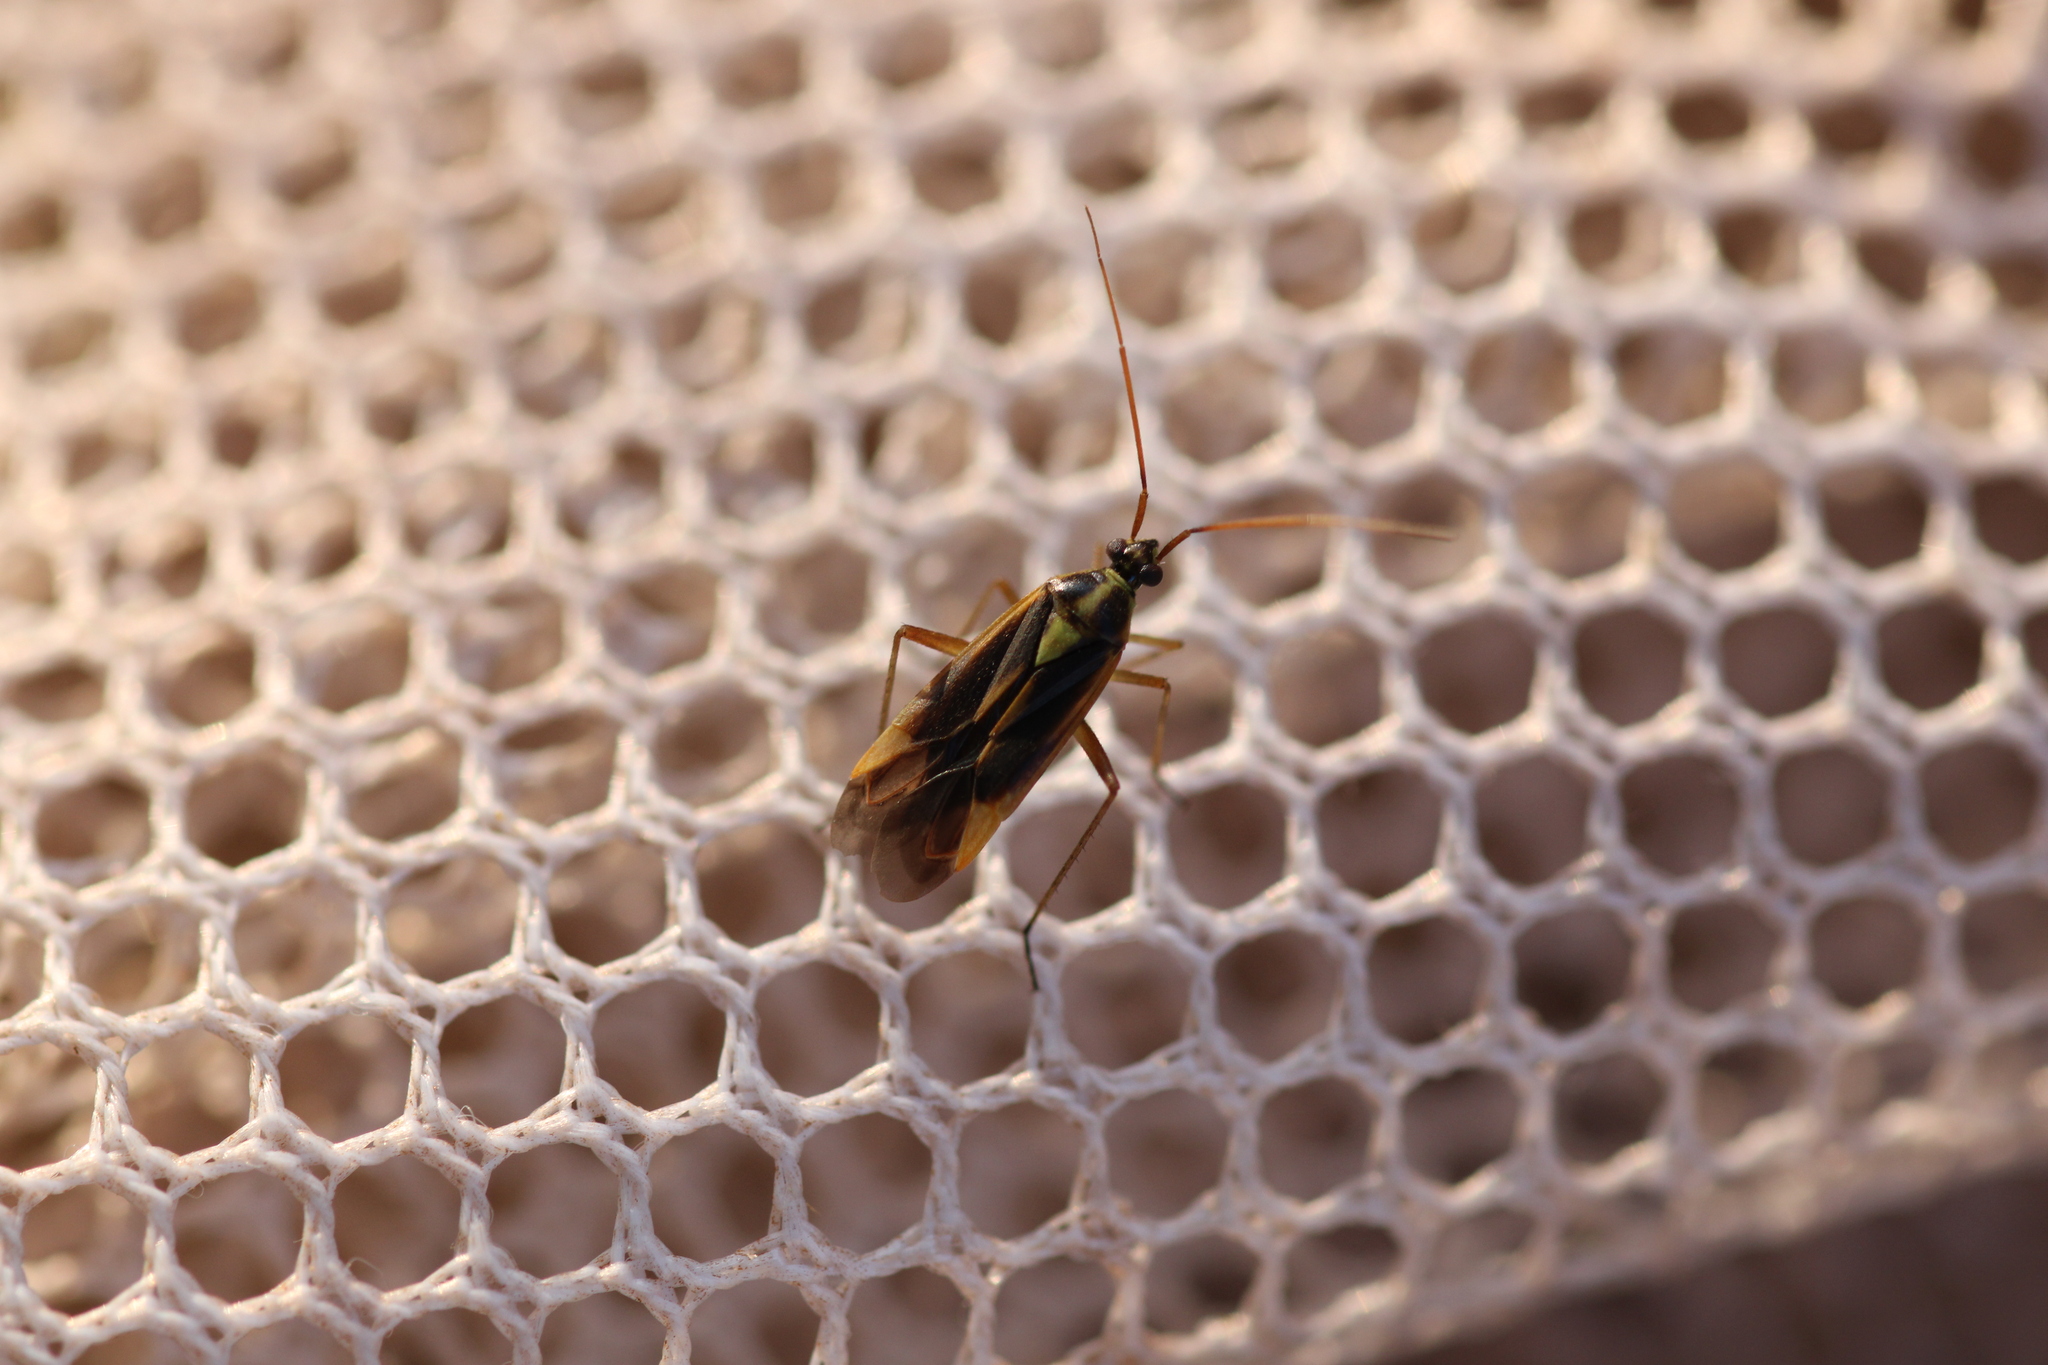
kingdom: Animalia
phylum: Arthropoda
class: Insecta
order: Hemiptera
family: Miridae
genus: Stenotus
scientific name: Stenotus binotatus
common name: Plant bug
